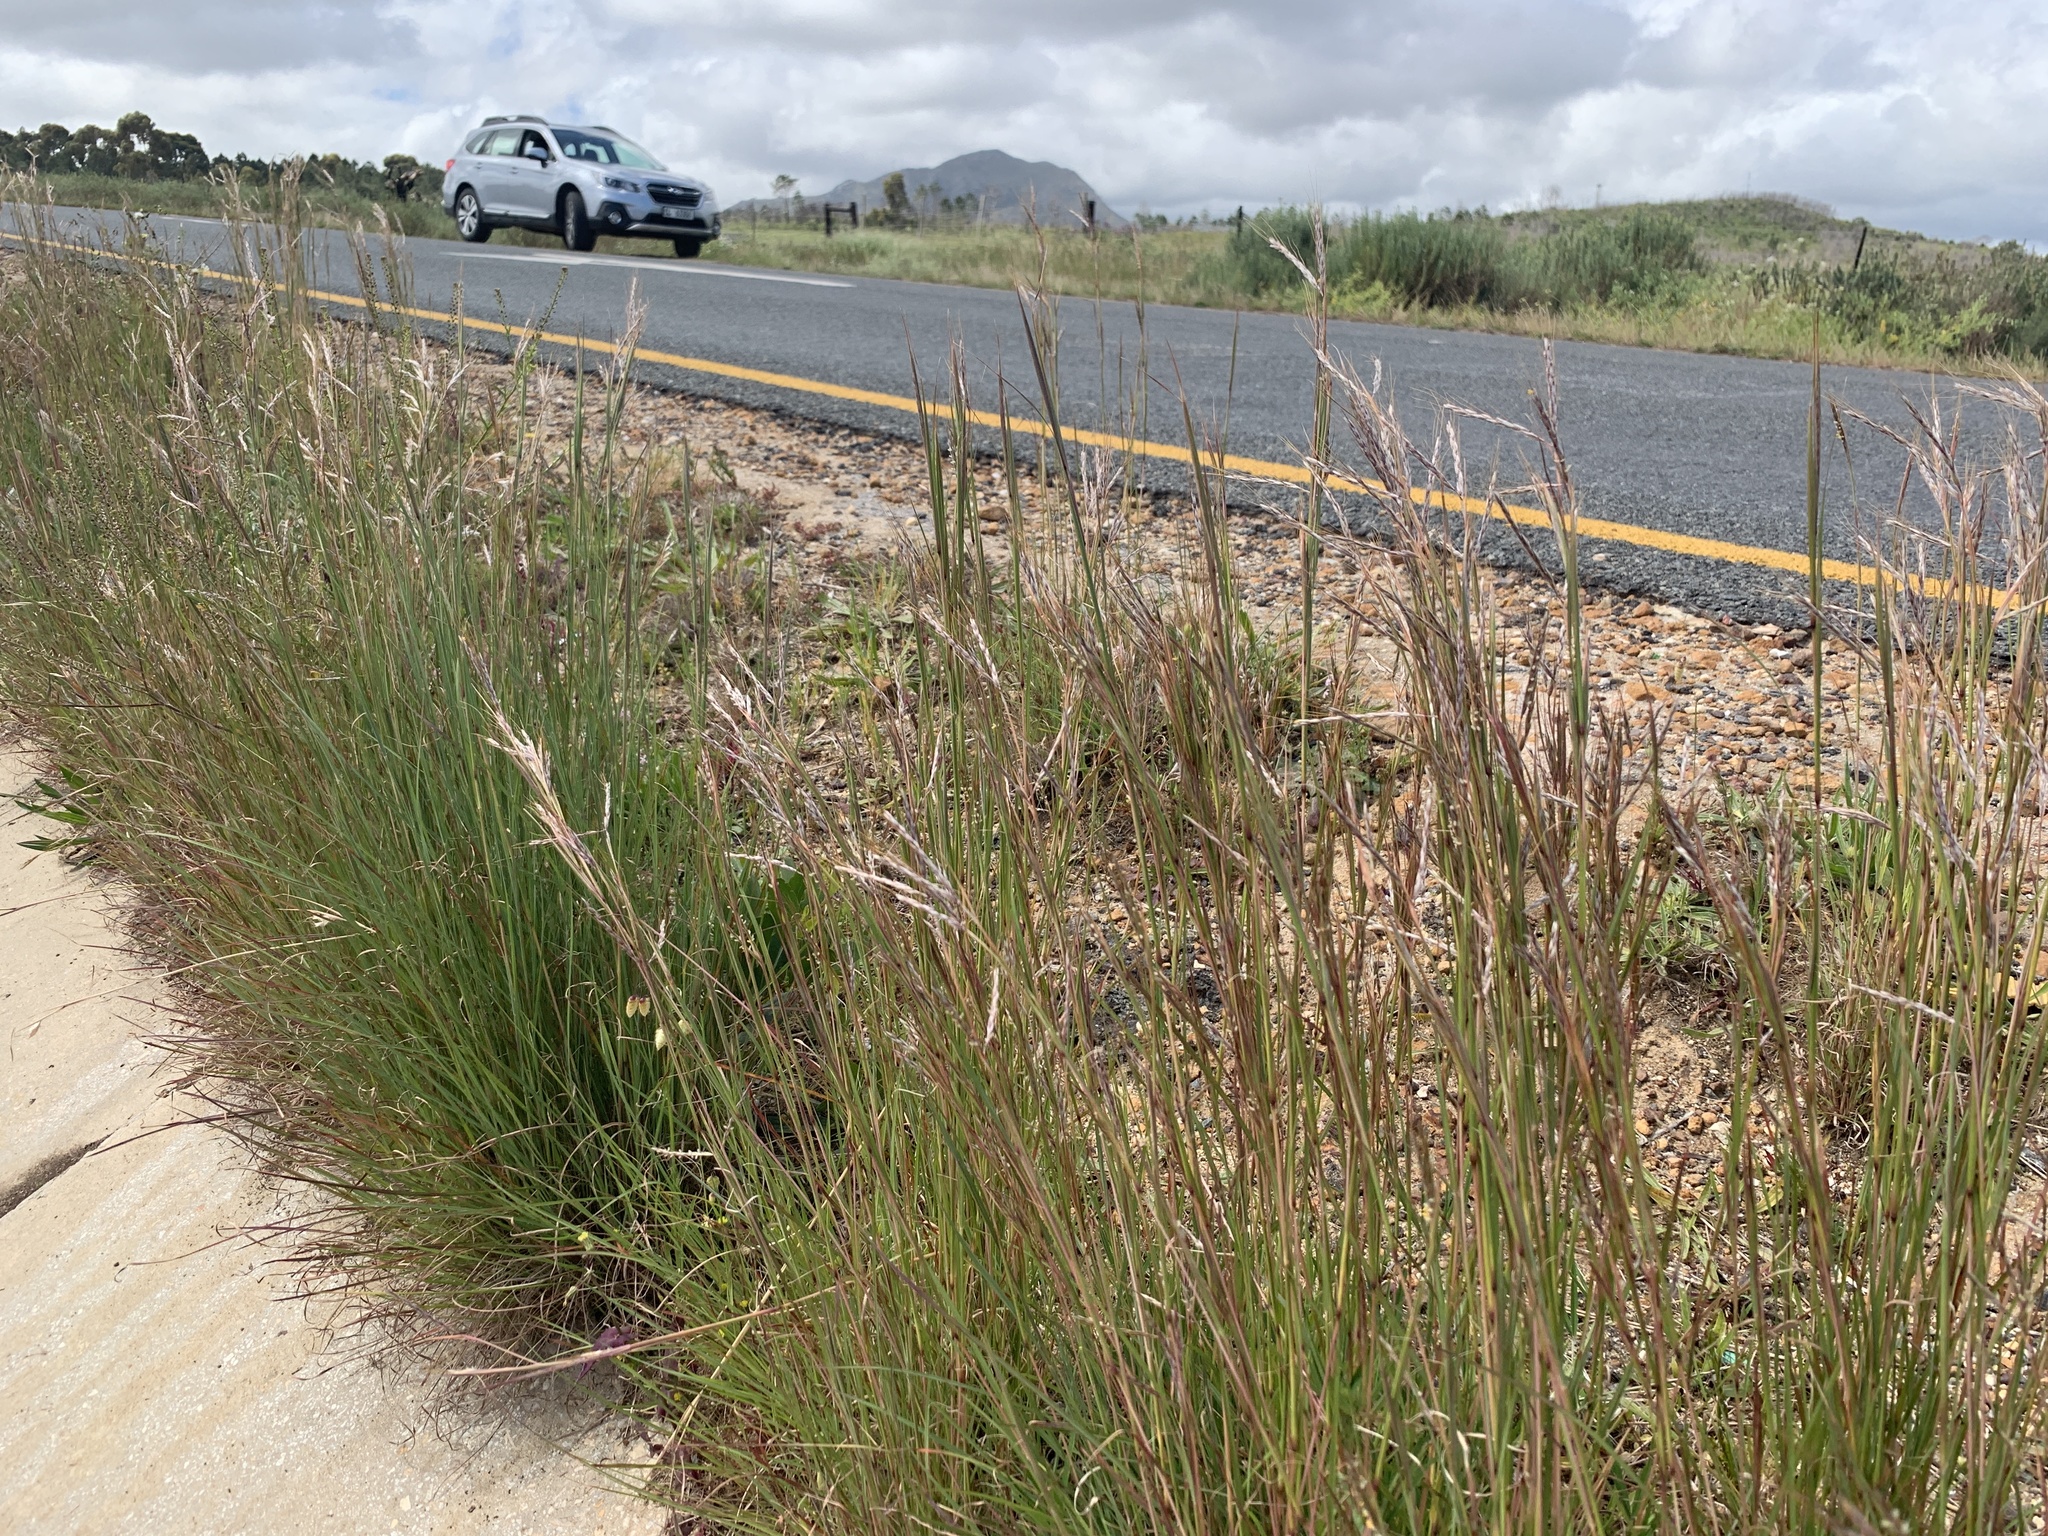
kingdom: Plantae
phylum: Tracheophyta
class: Liliopsida
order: Poales
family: Poaceae
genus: Hyparrhenia
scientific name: Hyparrhenia hirta
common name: Thatching grass
